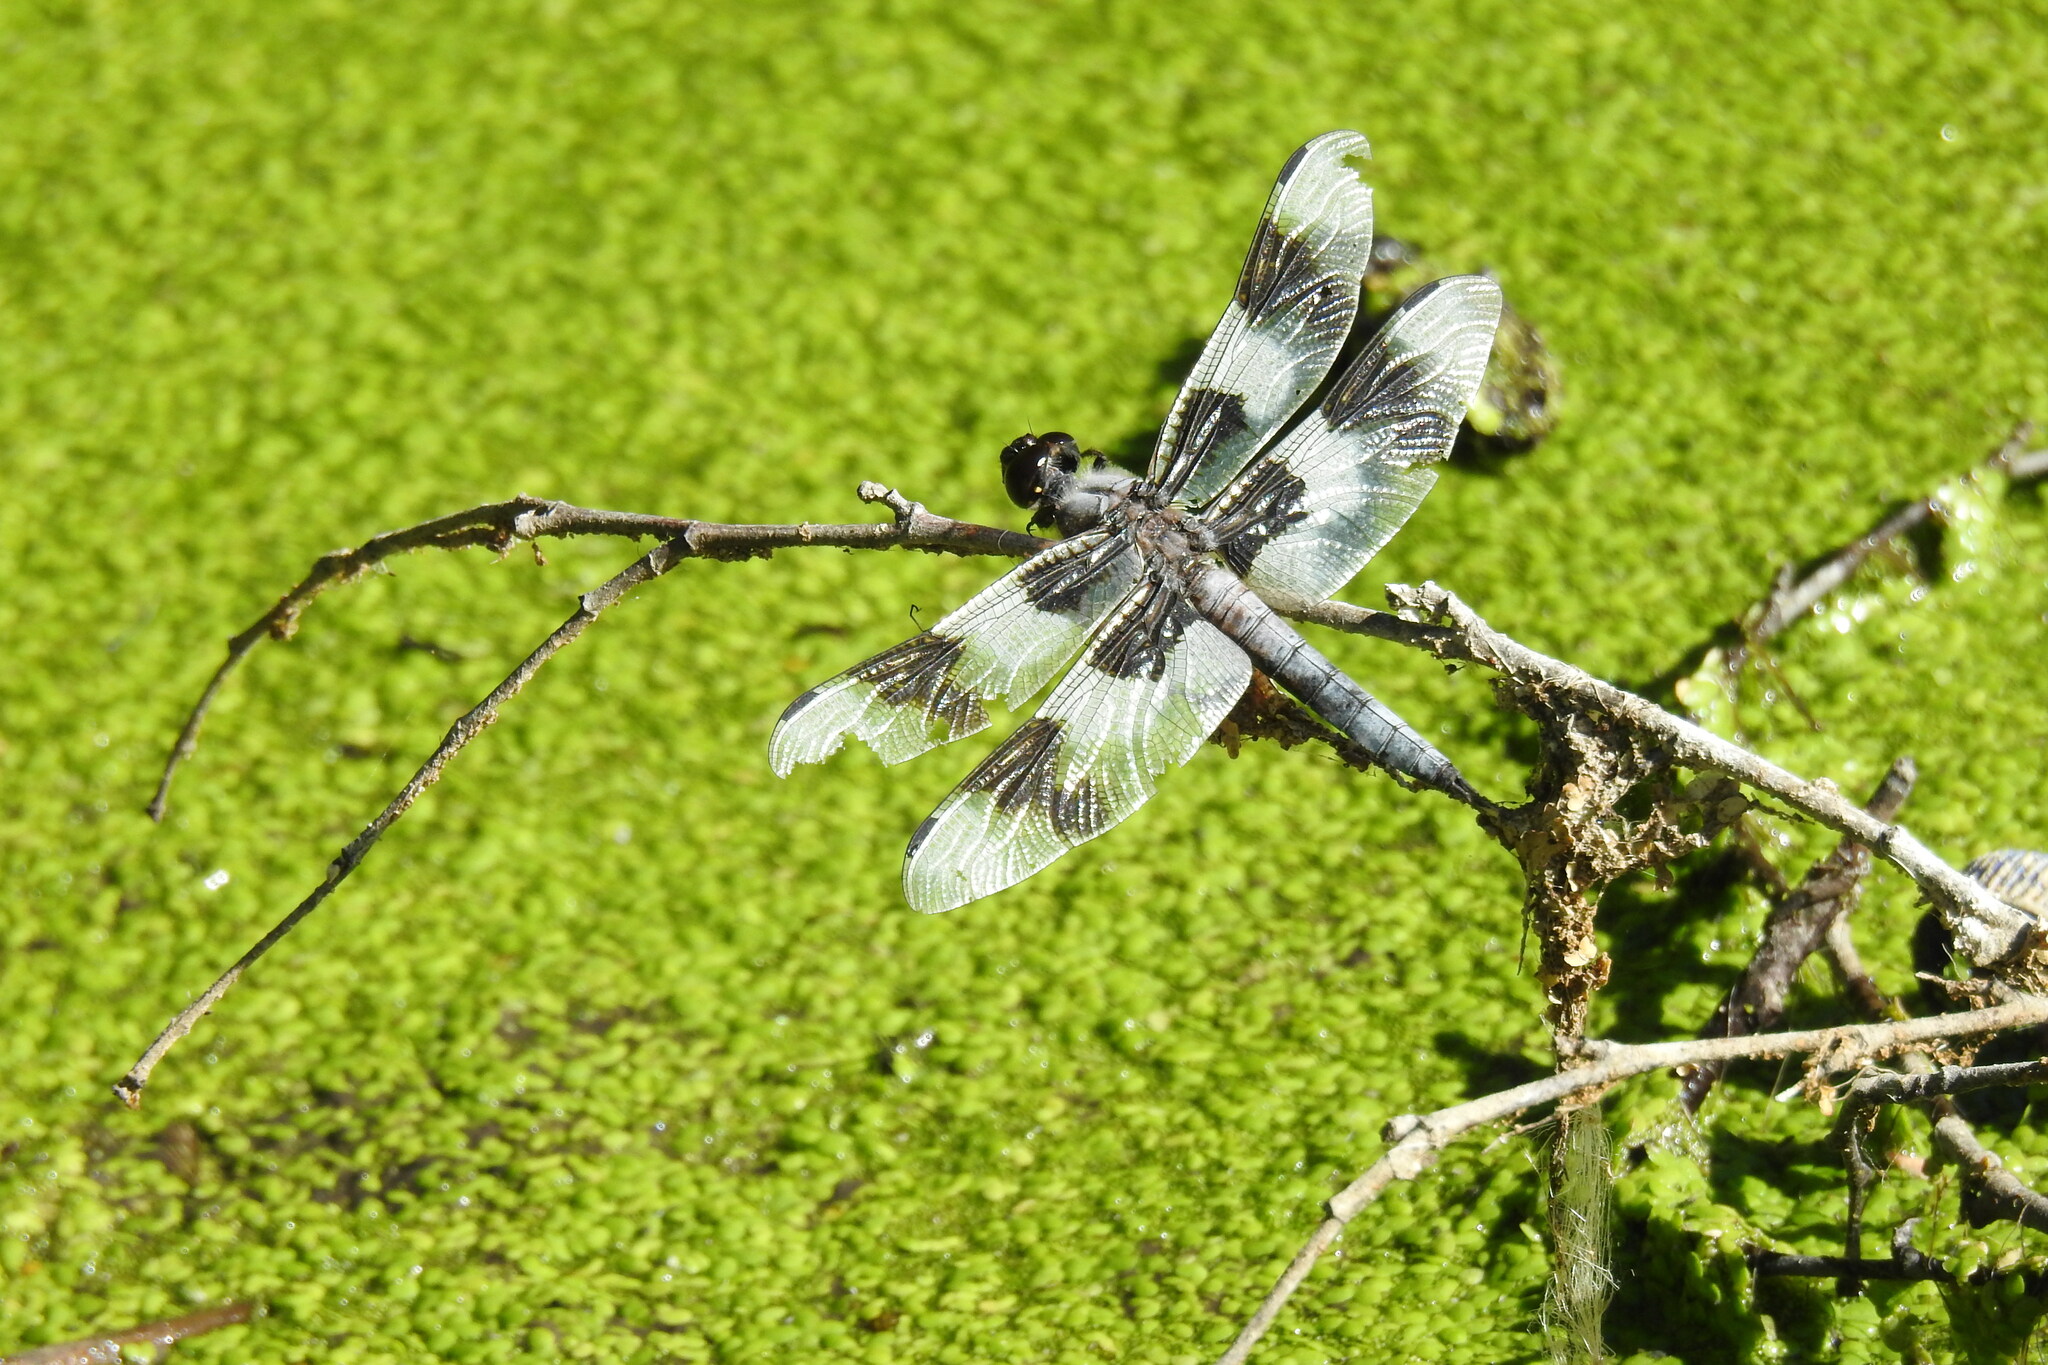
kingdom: Animalia
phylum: Arthropoda
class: Insecta
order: Odonata
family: Libellulidae
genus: Libellula
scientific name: Libellula forensis
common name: Eight-spotted skimmer
